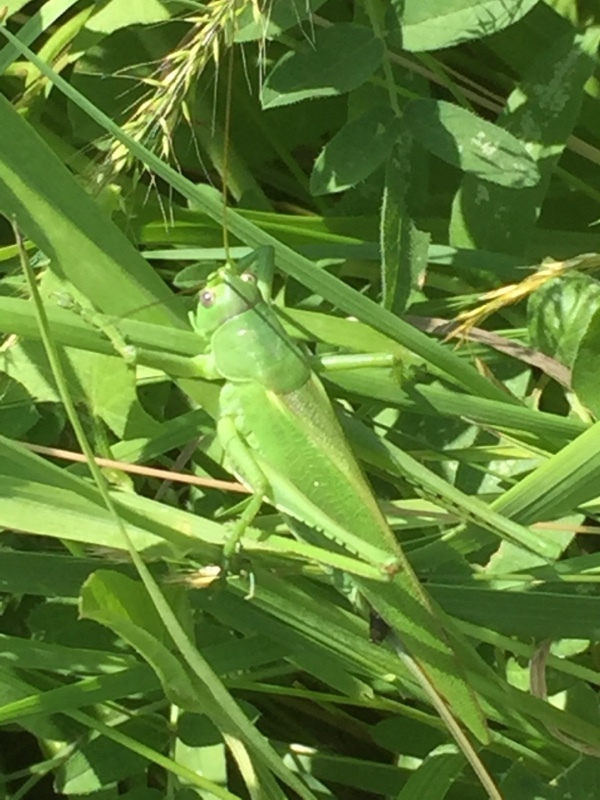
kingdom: Animalia
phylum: Arthropoda
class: Insecta
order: Orthoptera
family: Tettigoniidae
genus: Tettigonia
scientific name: Tettigonia caudata
